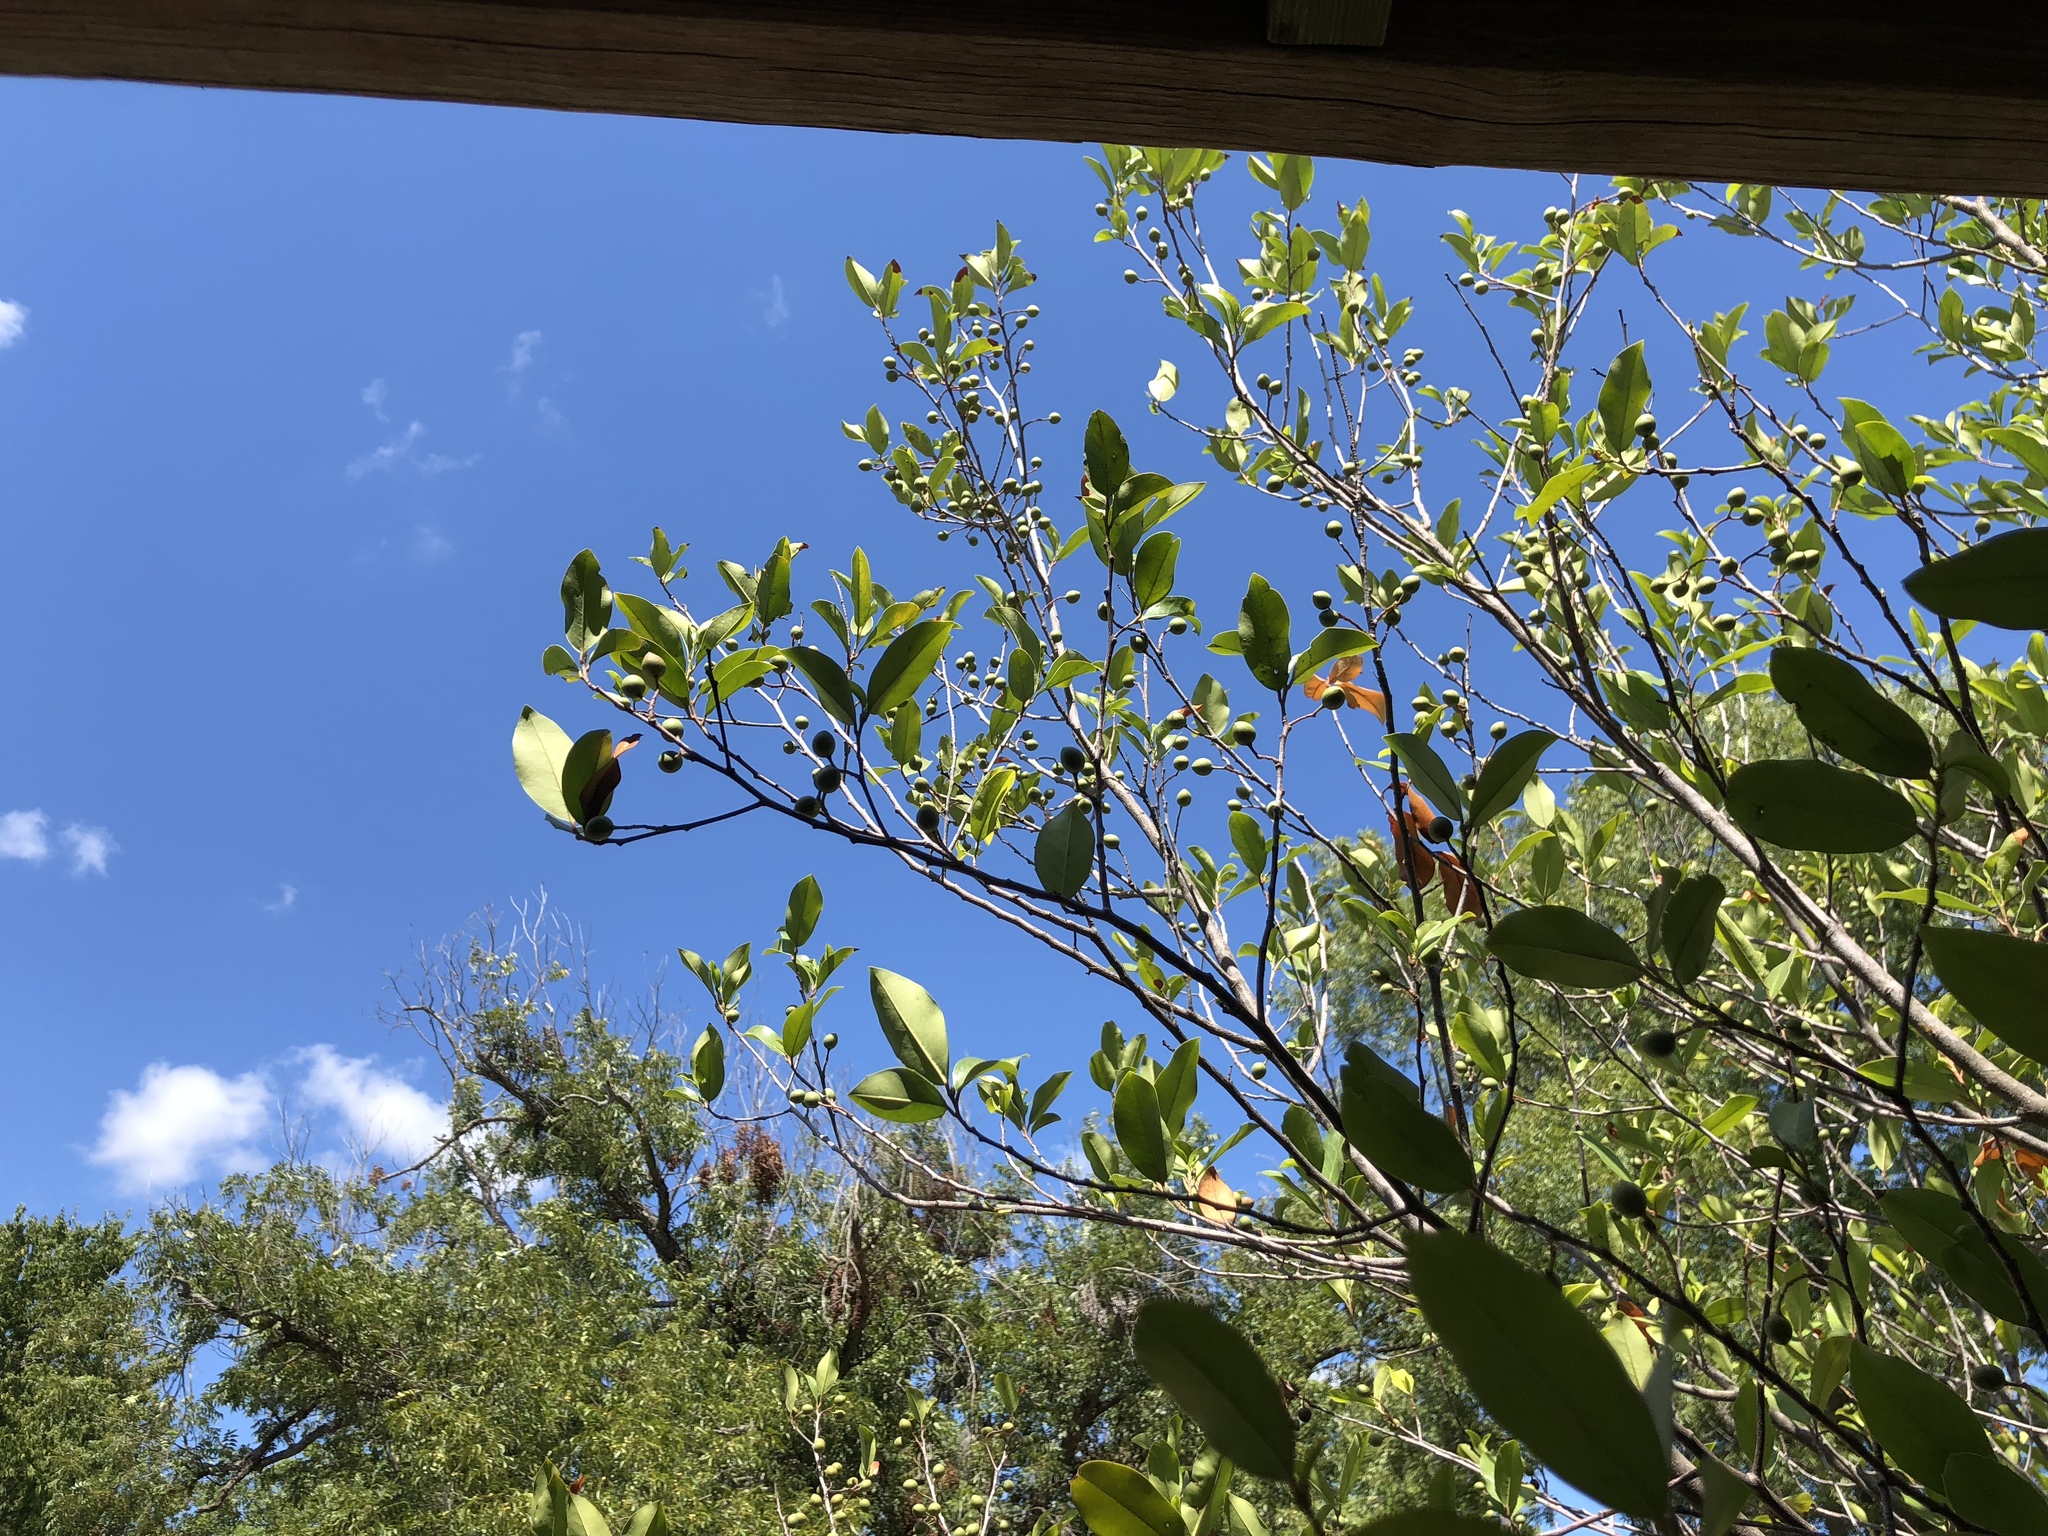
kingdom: Plantae
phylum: Tracheophyta
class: Magnoliopsida
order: Rosales
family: Rosaceae
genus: Prunus
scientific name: Prunus caroliniana
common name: Carolina laurel cherry
